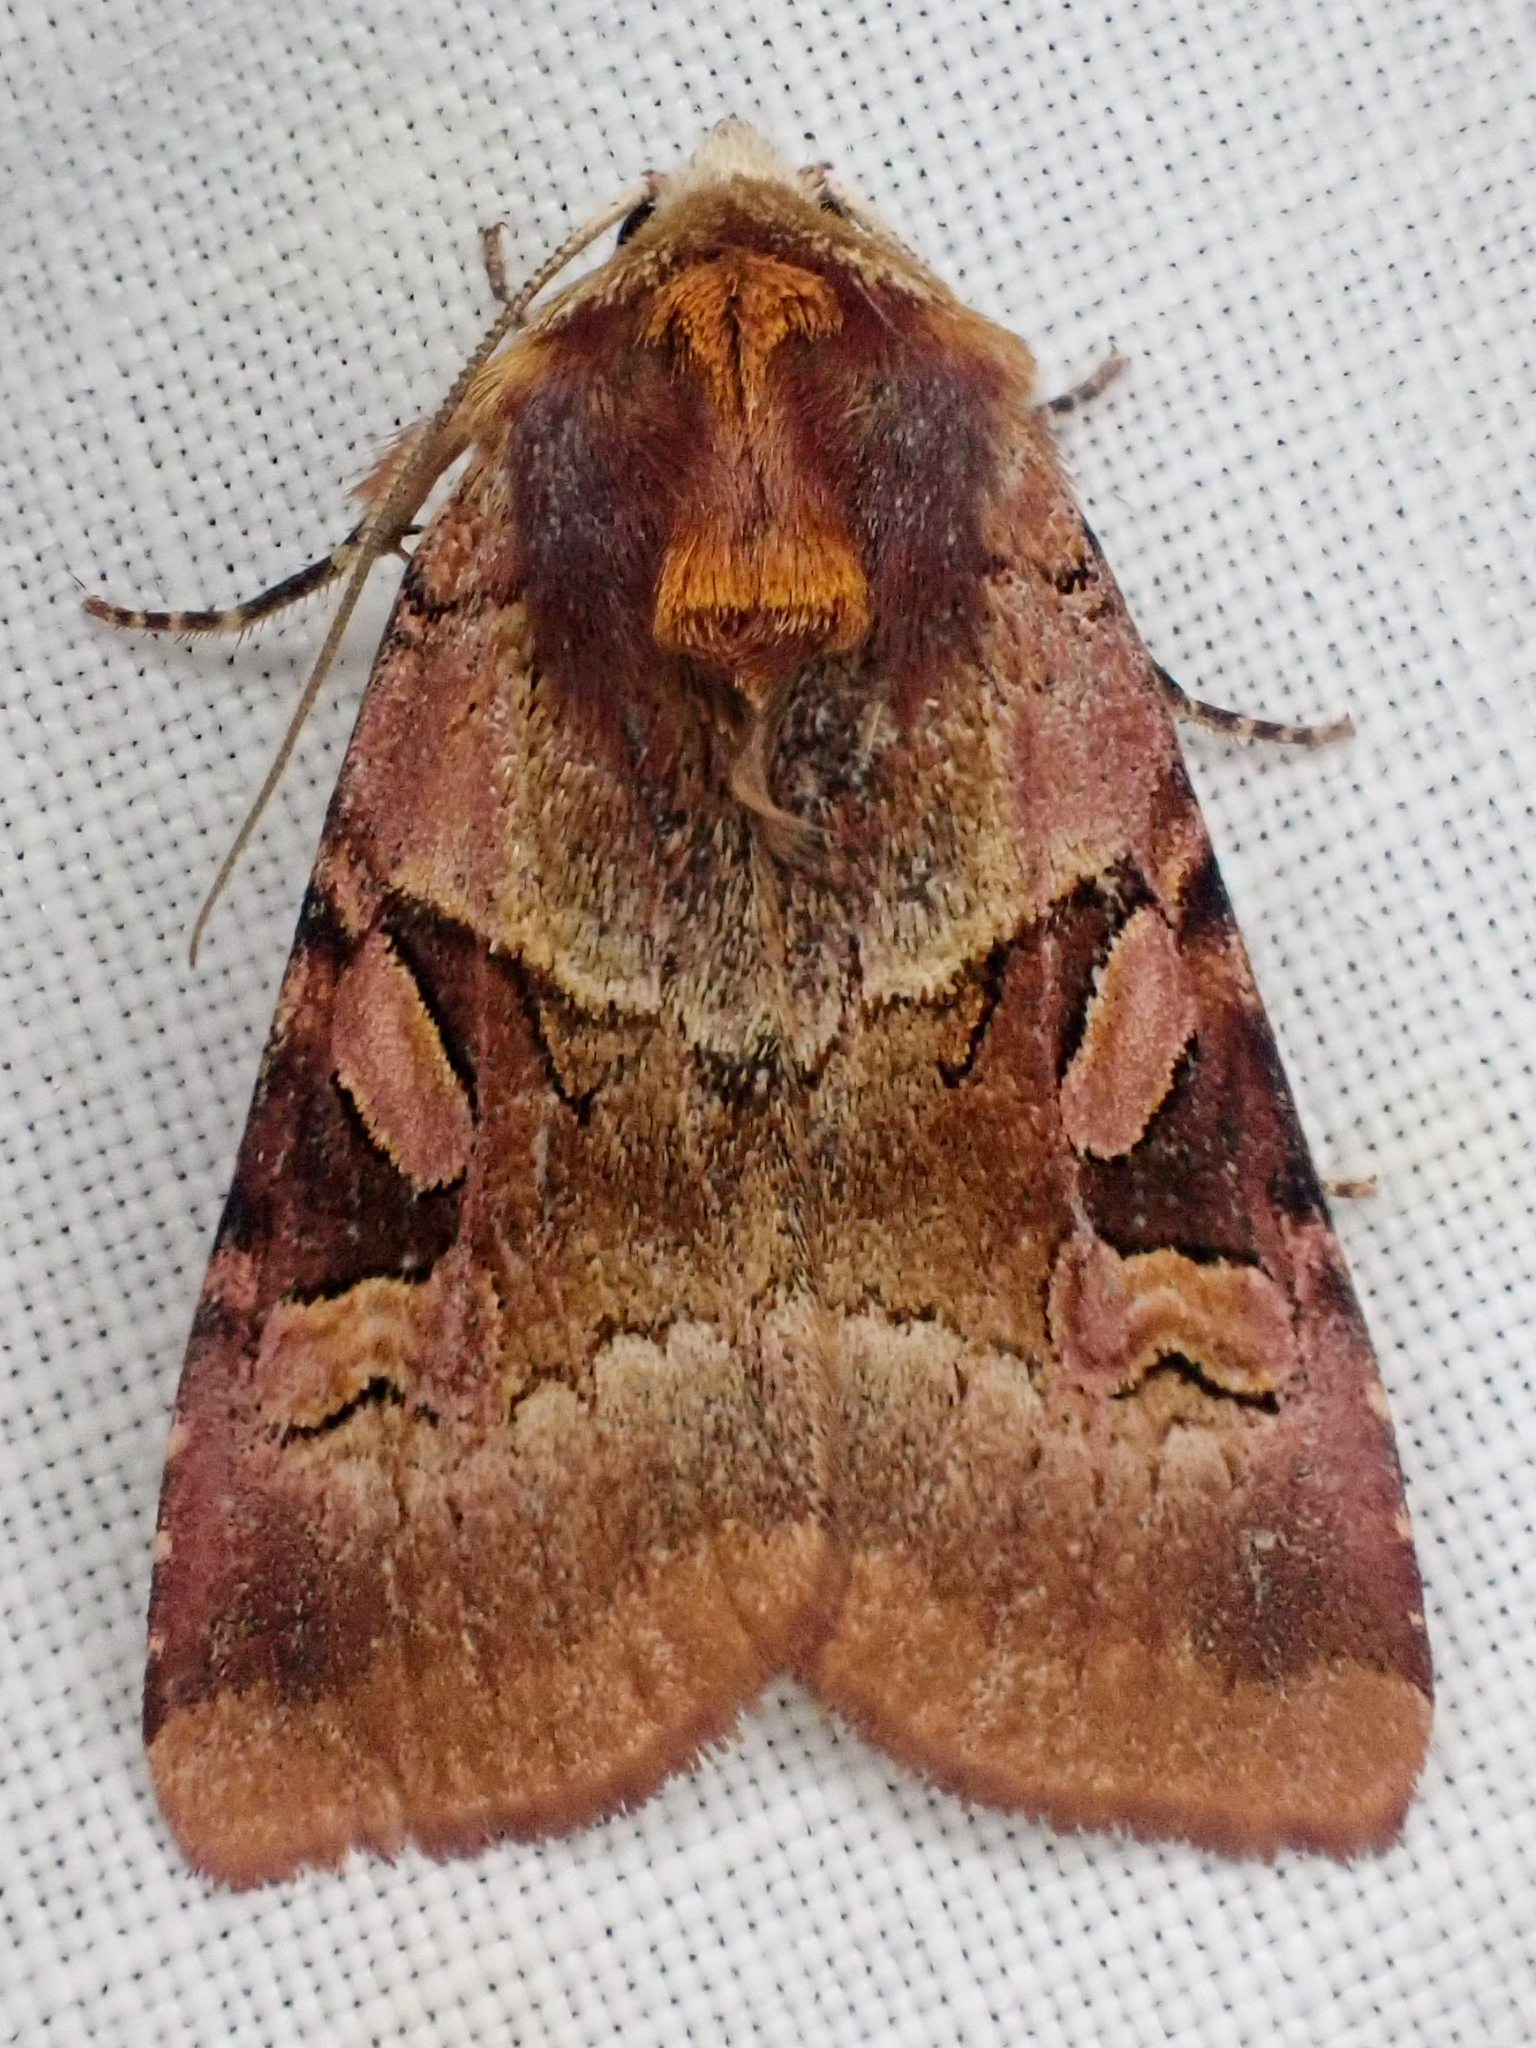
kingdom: Animalia
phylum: Arthropoda
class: Insecta
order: Lepidoptera
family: Noctuidae
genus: Xestia
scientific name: Xestia oblata
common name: Rosy dart
